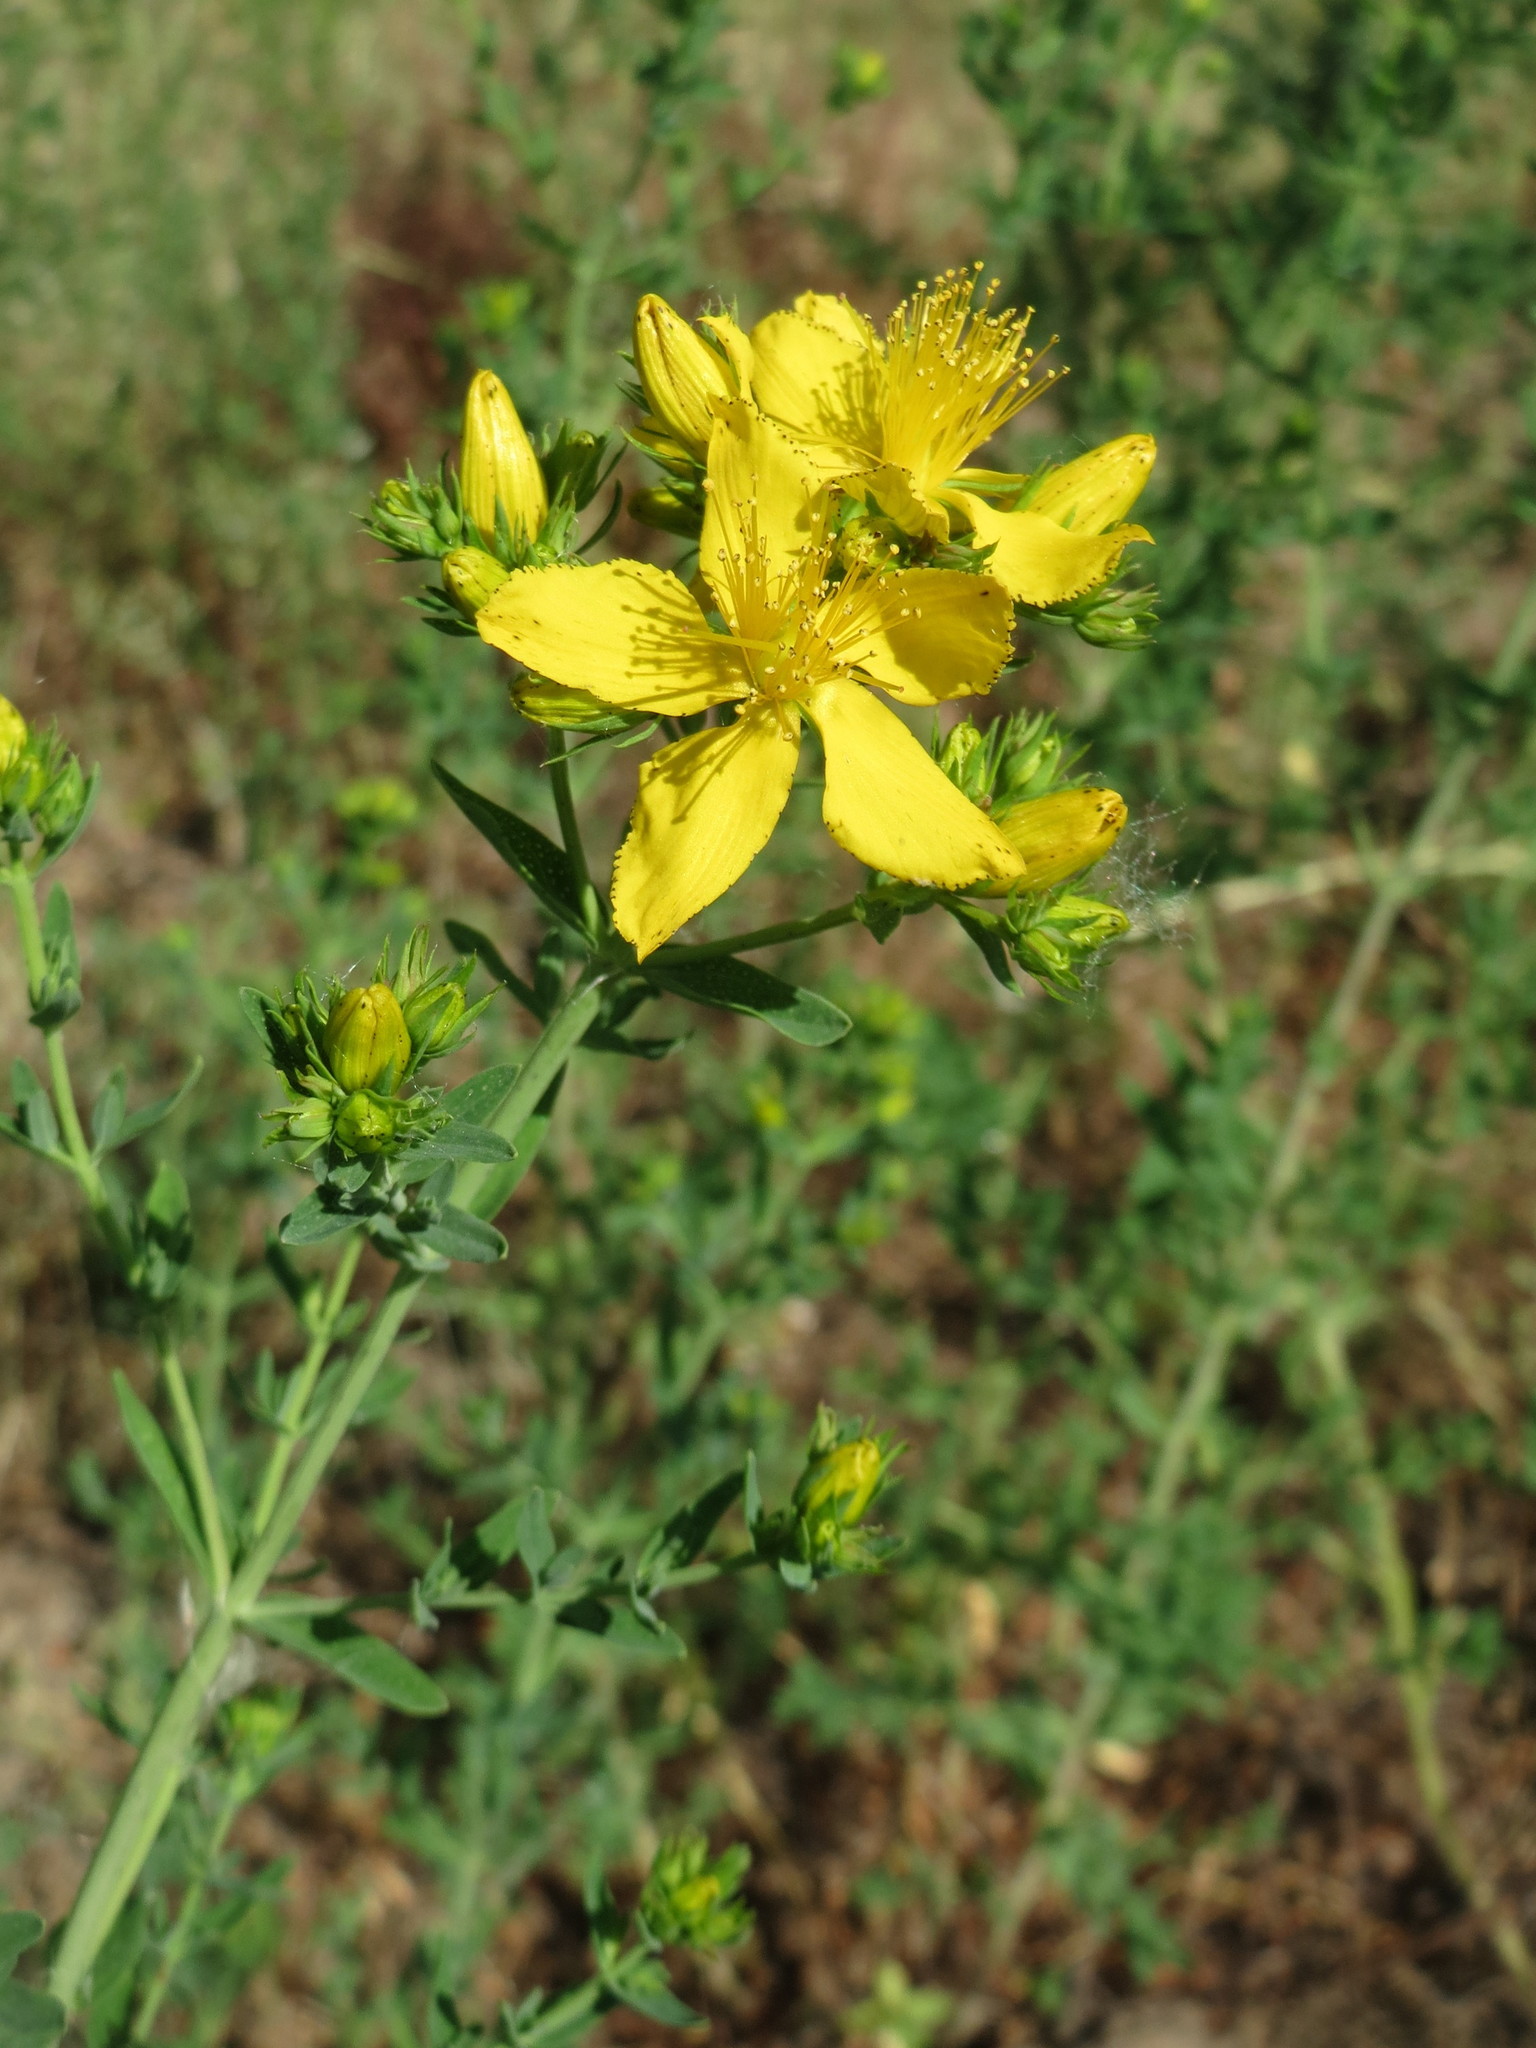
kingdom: Plantae
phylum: Tracheophyta
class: Magnoliopsida
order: Malpighiales
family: Hypericaceae
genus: Hypericum
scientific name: Hypericum perforatum
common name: Common st. johnswort
